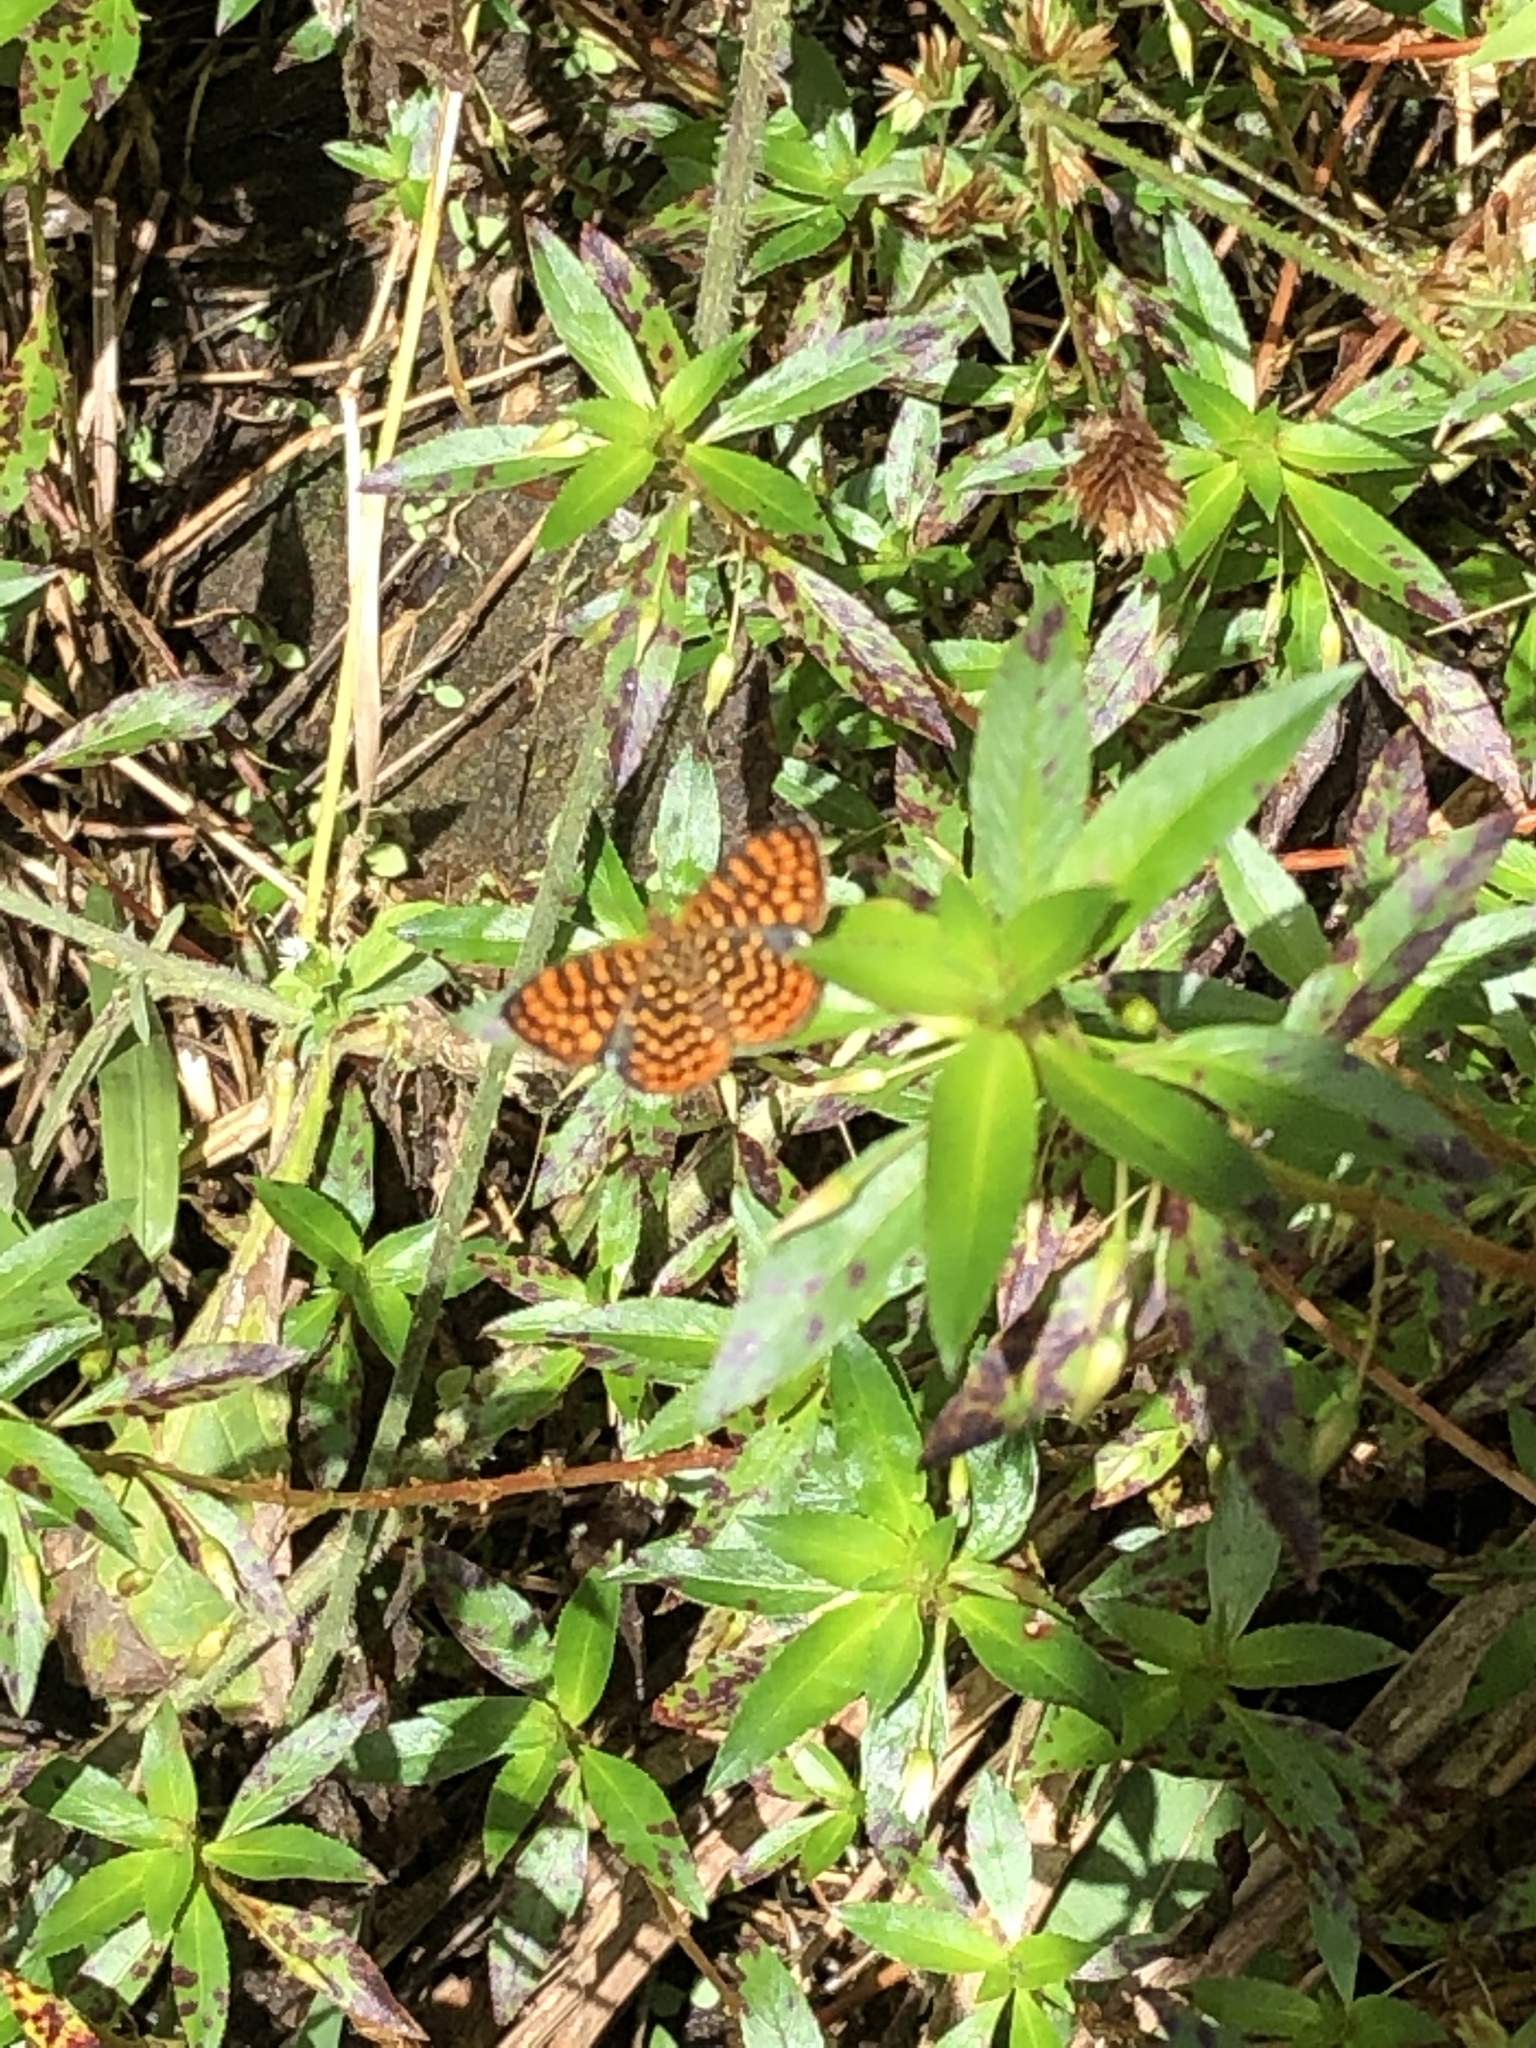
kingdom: Animalia
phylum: Arthropoda
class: Insecta
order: Lepidoptera
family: Nymphalidae
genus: Antillea
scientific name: Antillea pelops
